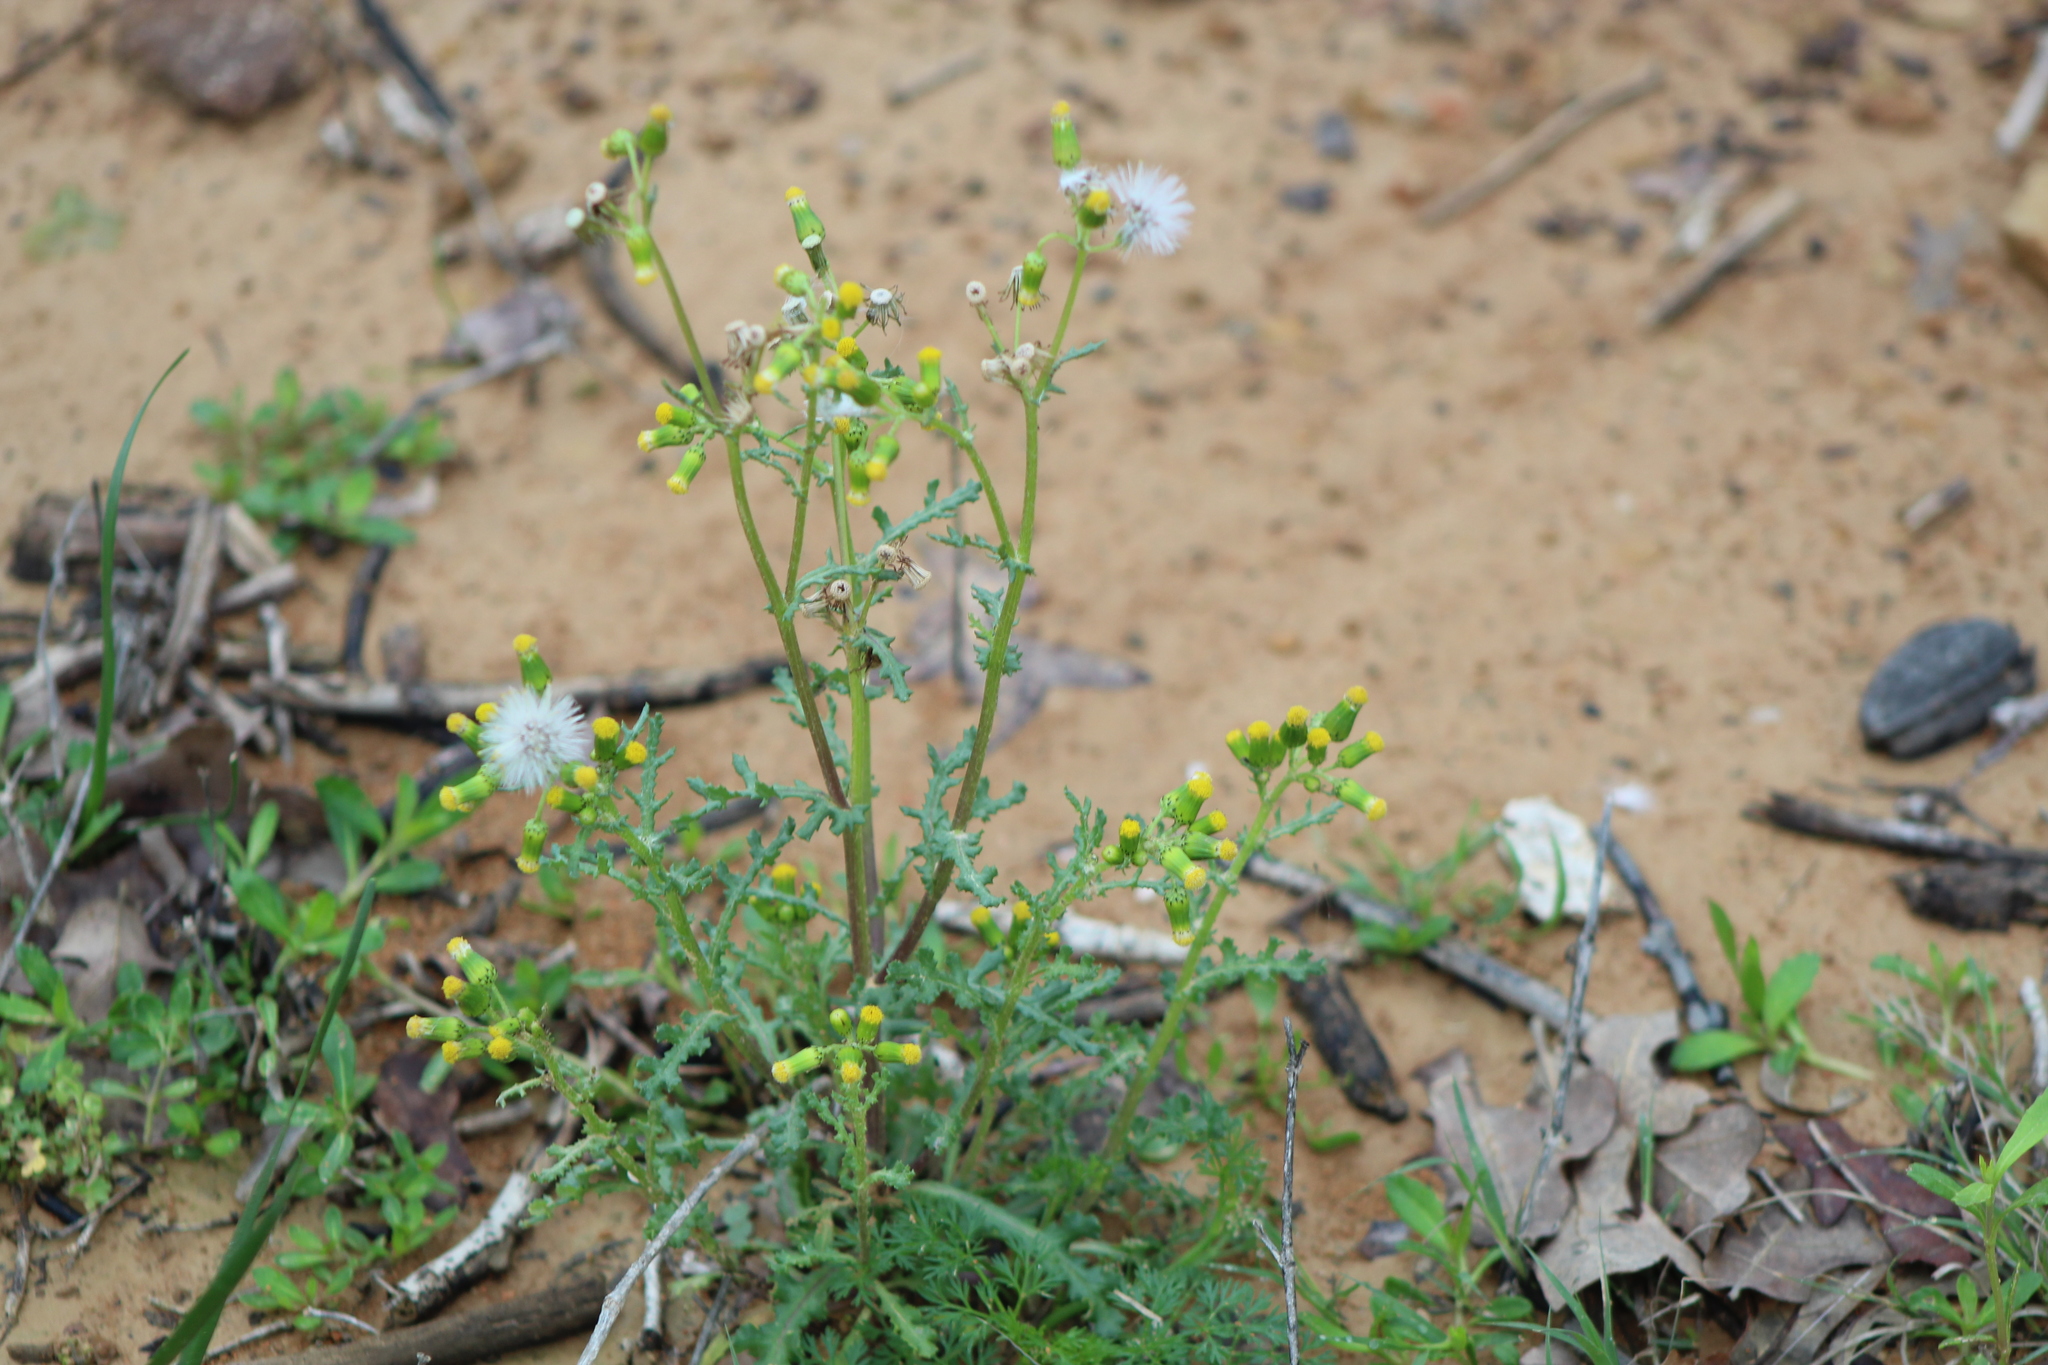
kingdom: Plantae
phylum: Tracheophyta
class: Magnoliopsida
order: Asterales
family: Asteraceae
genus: Senecio
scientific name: Senecio vulgaris
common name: Old-man-in-the-spring
